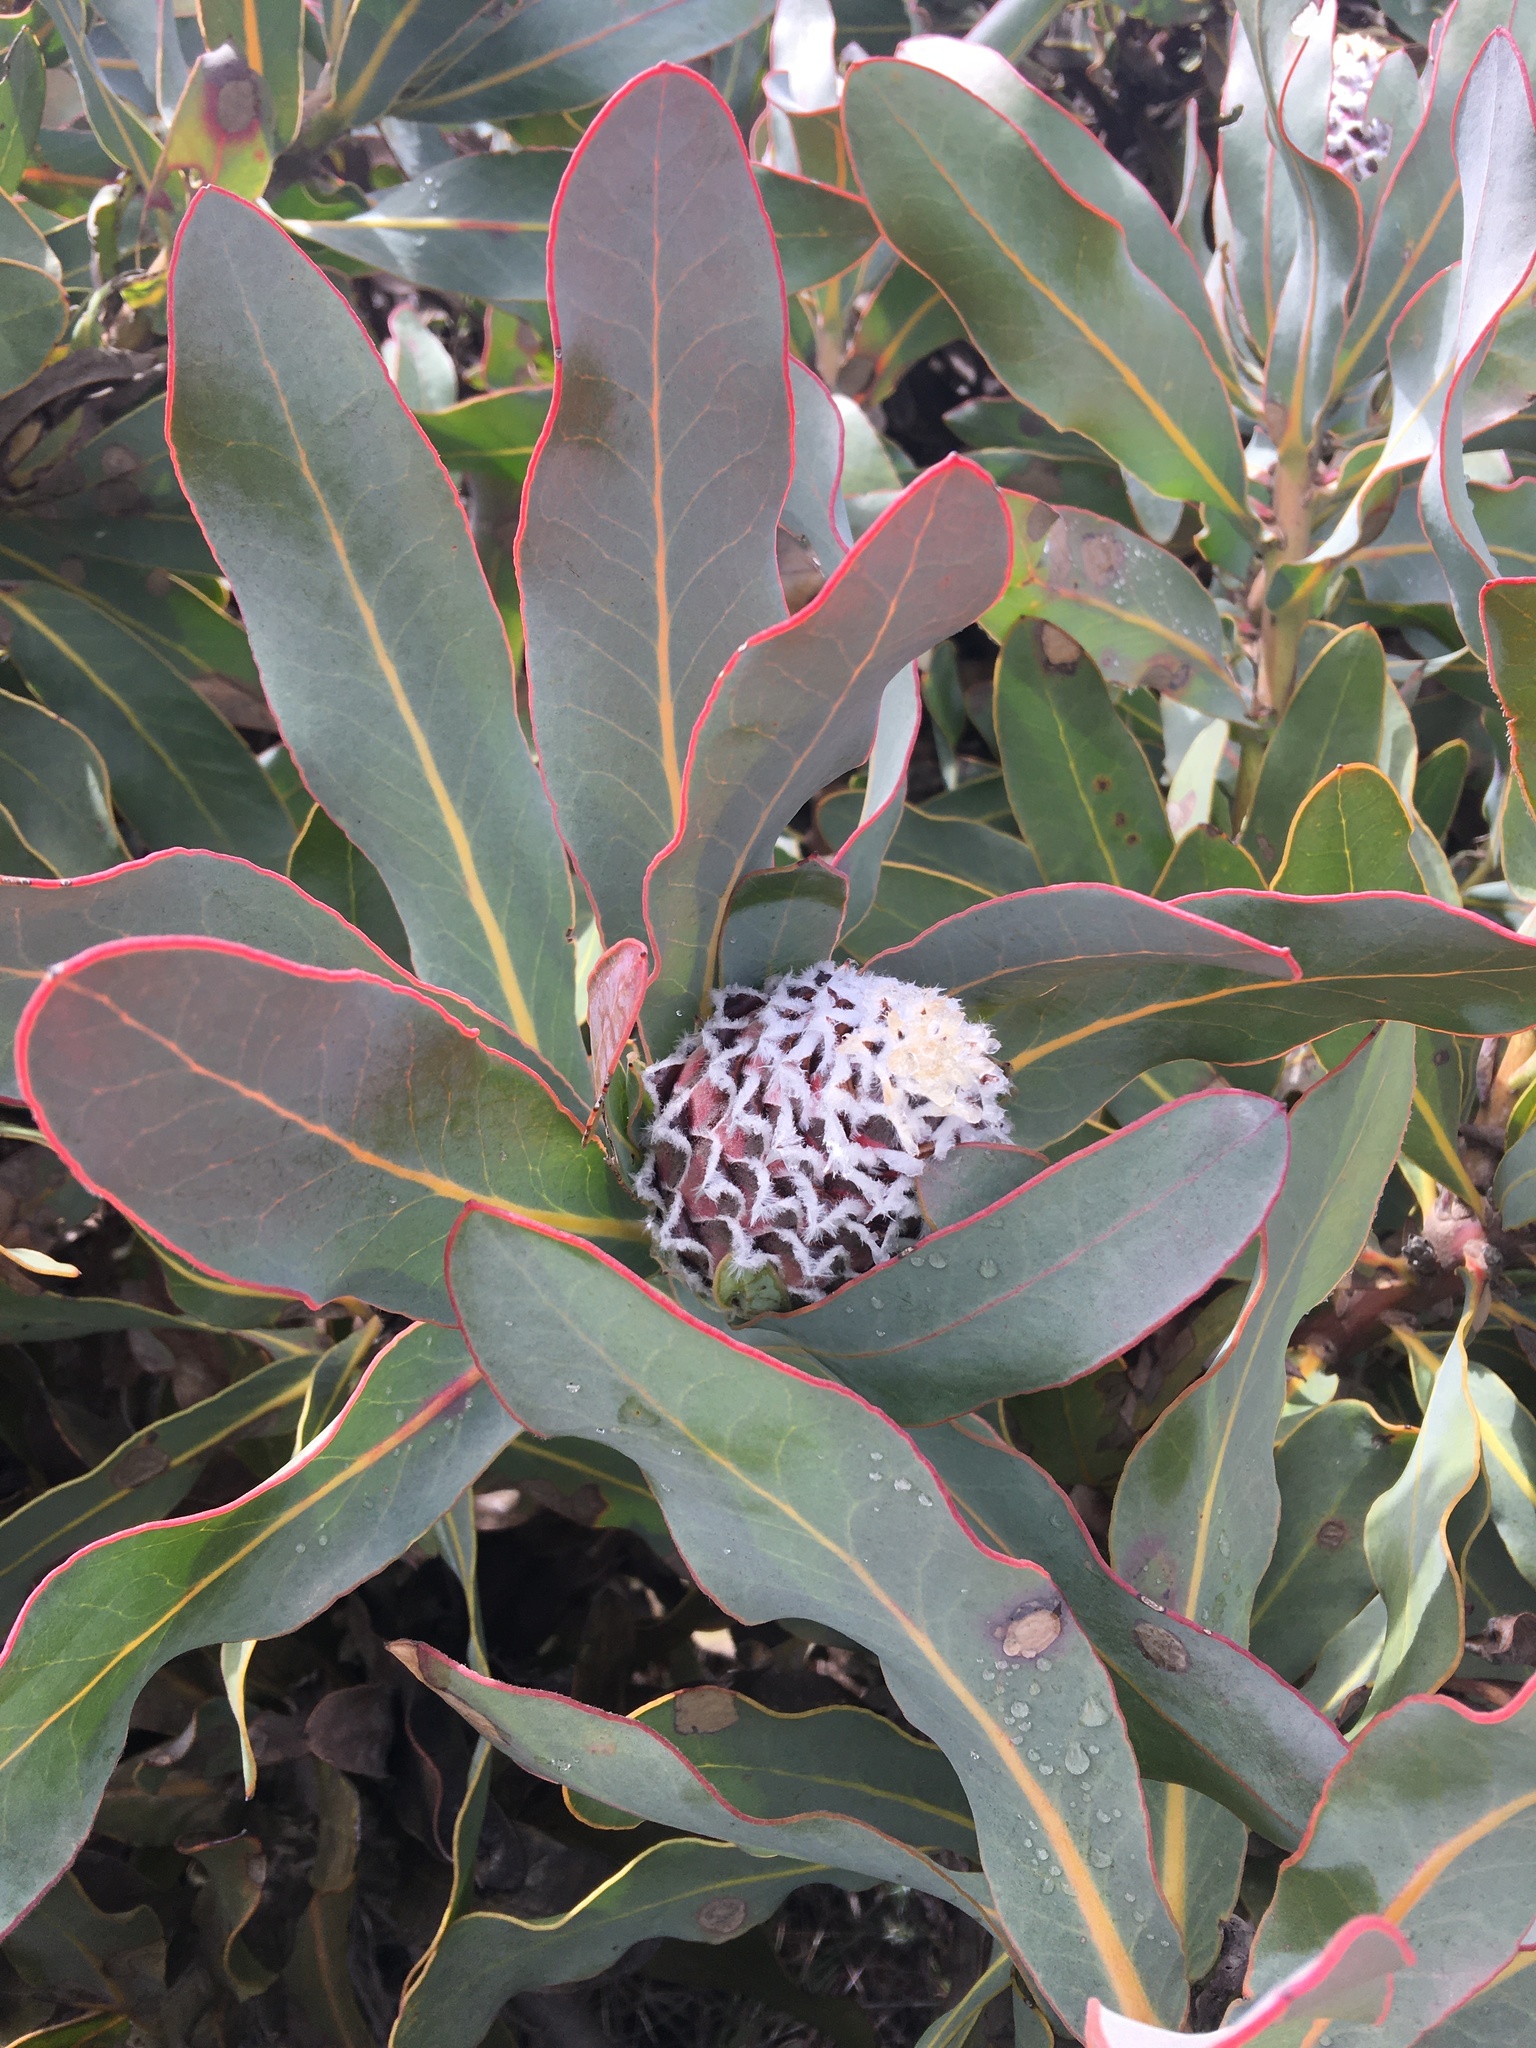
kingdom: Plantae
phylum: Tracheophyta
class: Magnoliopsida
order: Proteales
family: Proteaceae
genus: Protea
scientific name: Protea magnifica
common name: Bearded sugarbush
